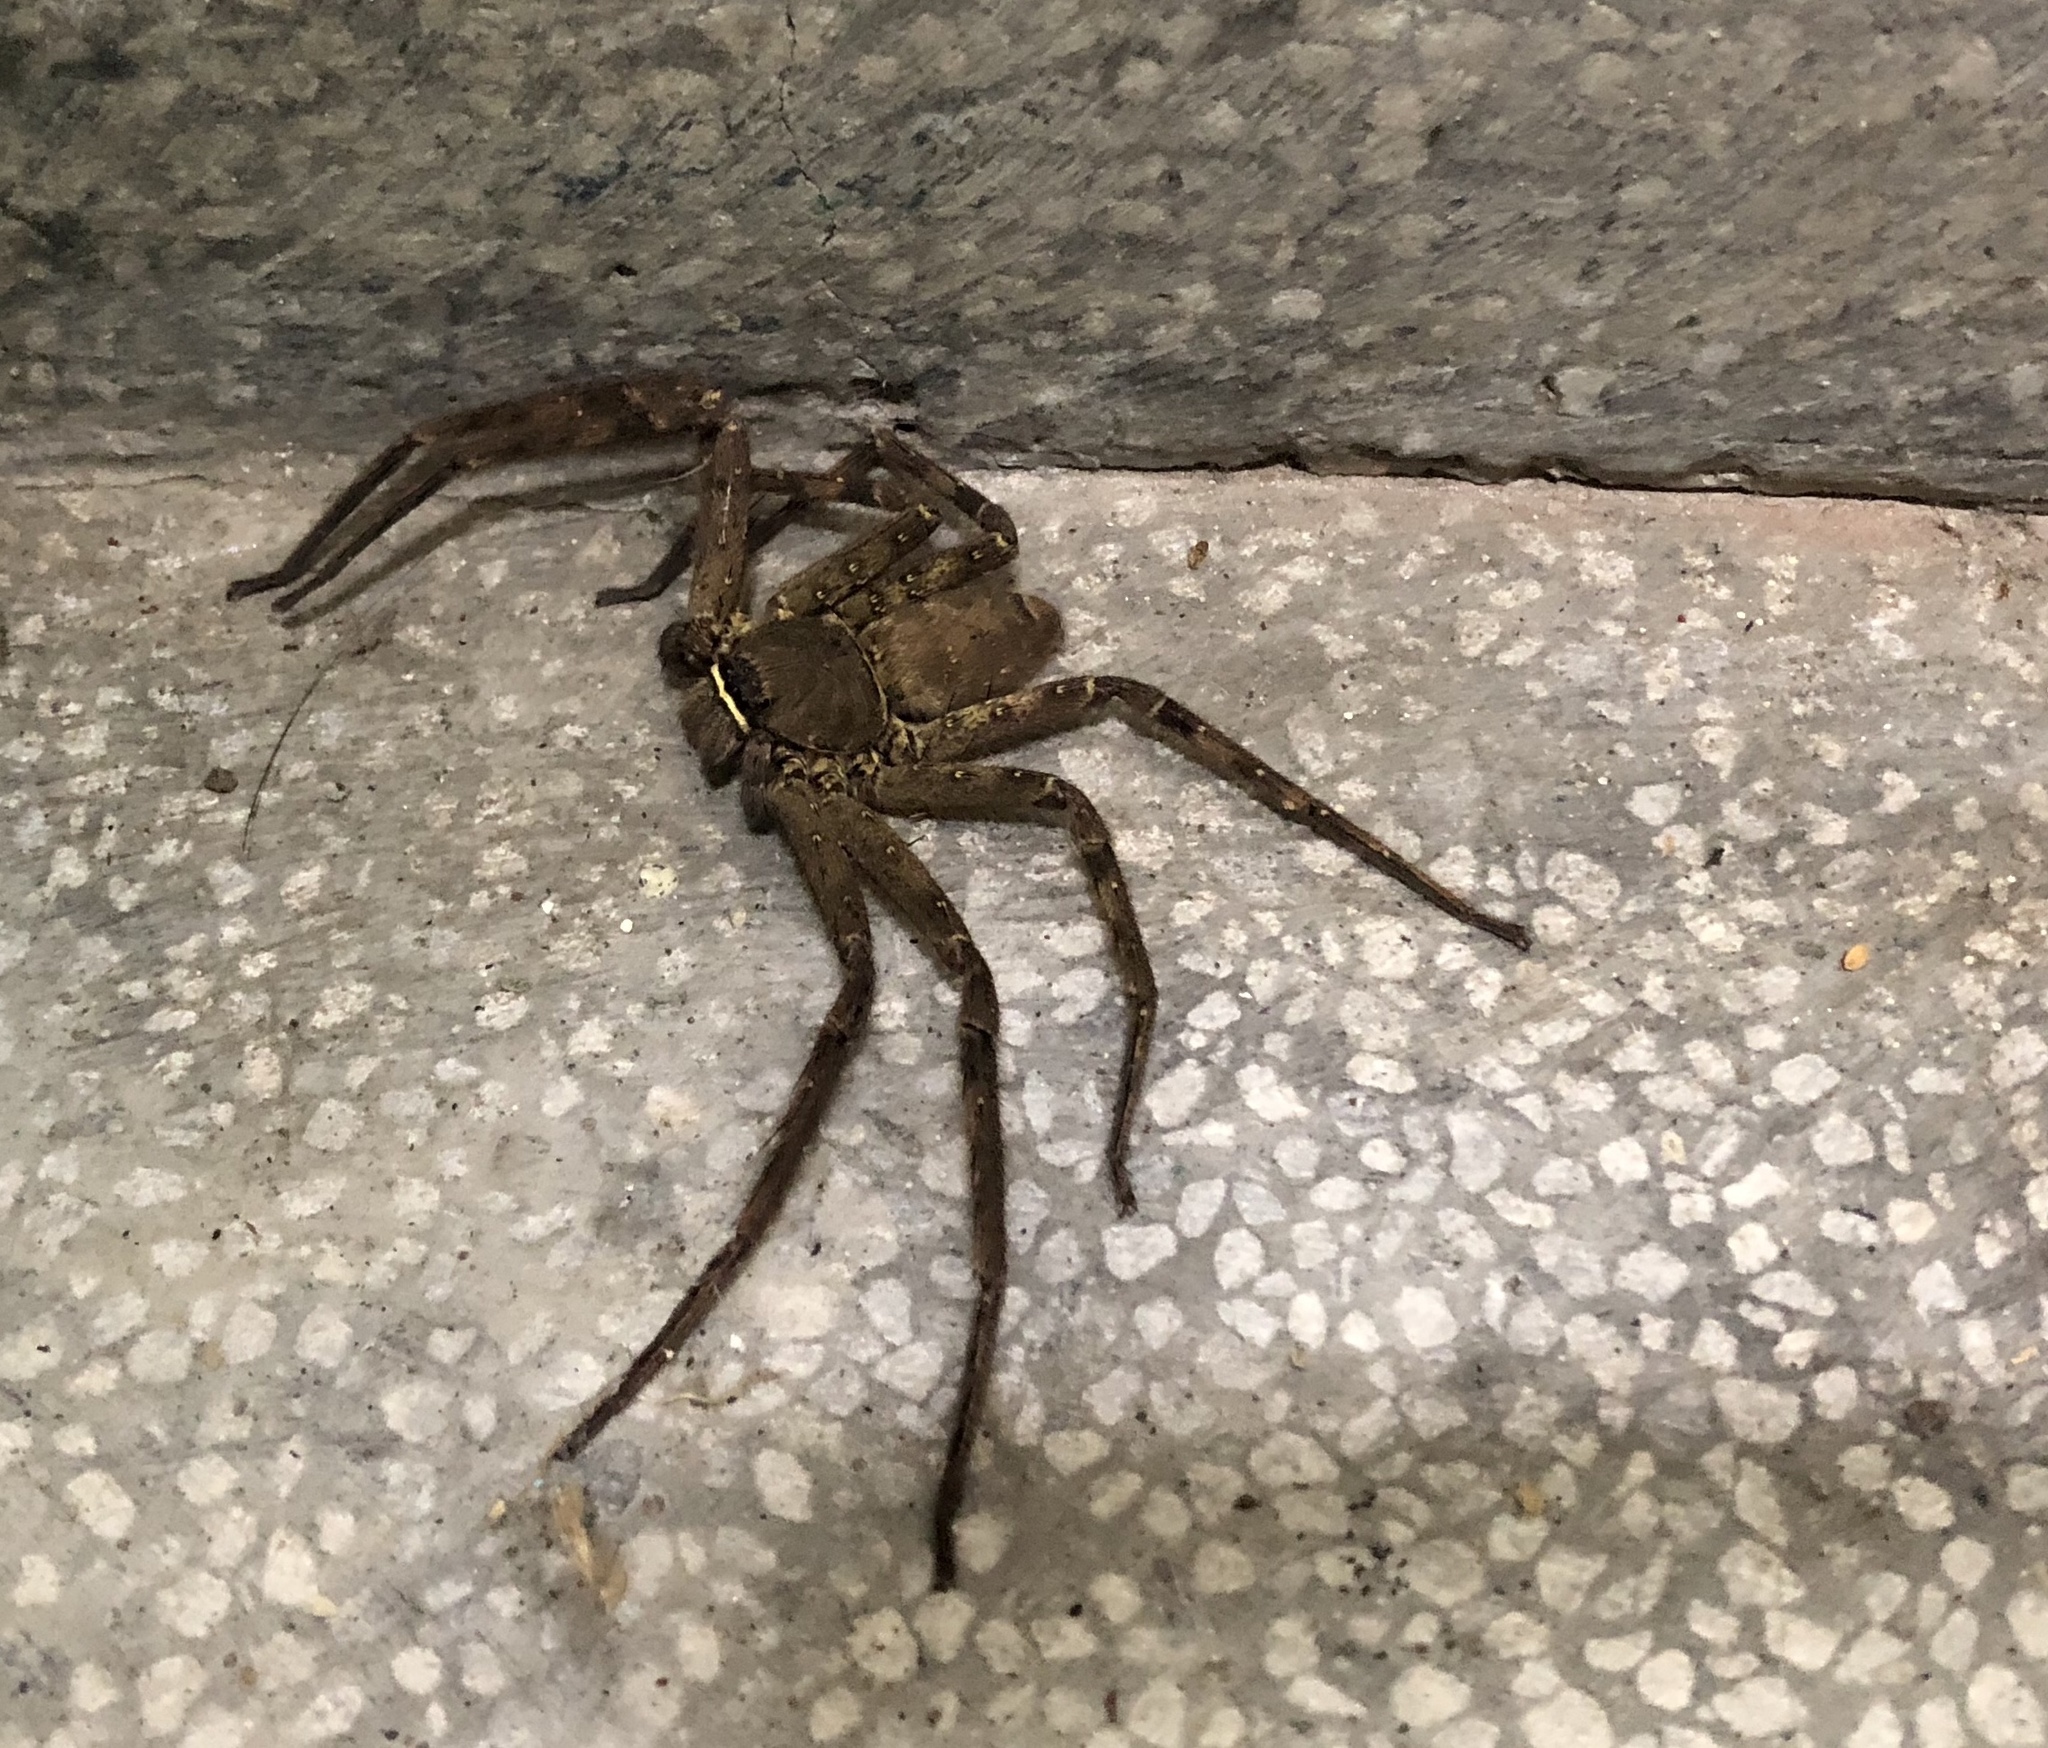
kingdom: Animalia
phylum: Arthropoda
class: Arachnida
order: Araneae
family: Sparassidae
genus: Heteropoda
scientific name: Heteropoda venatoria
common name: Huntsman spider
